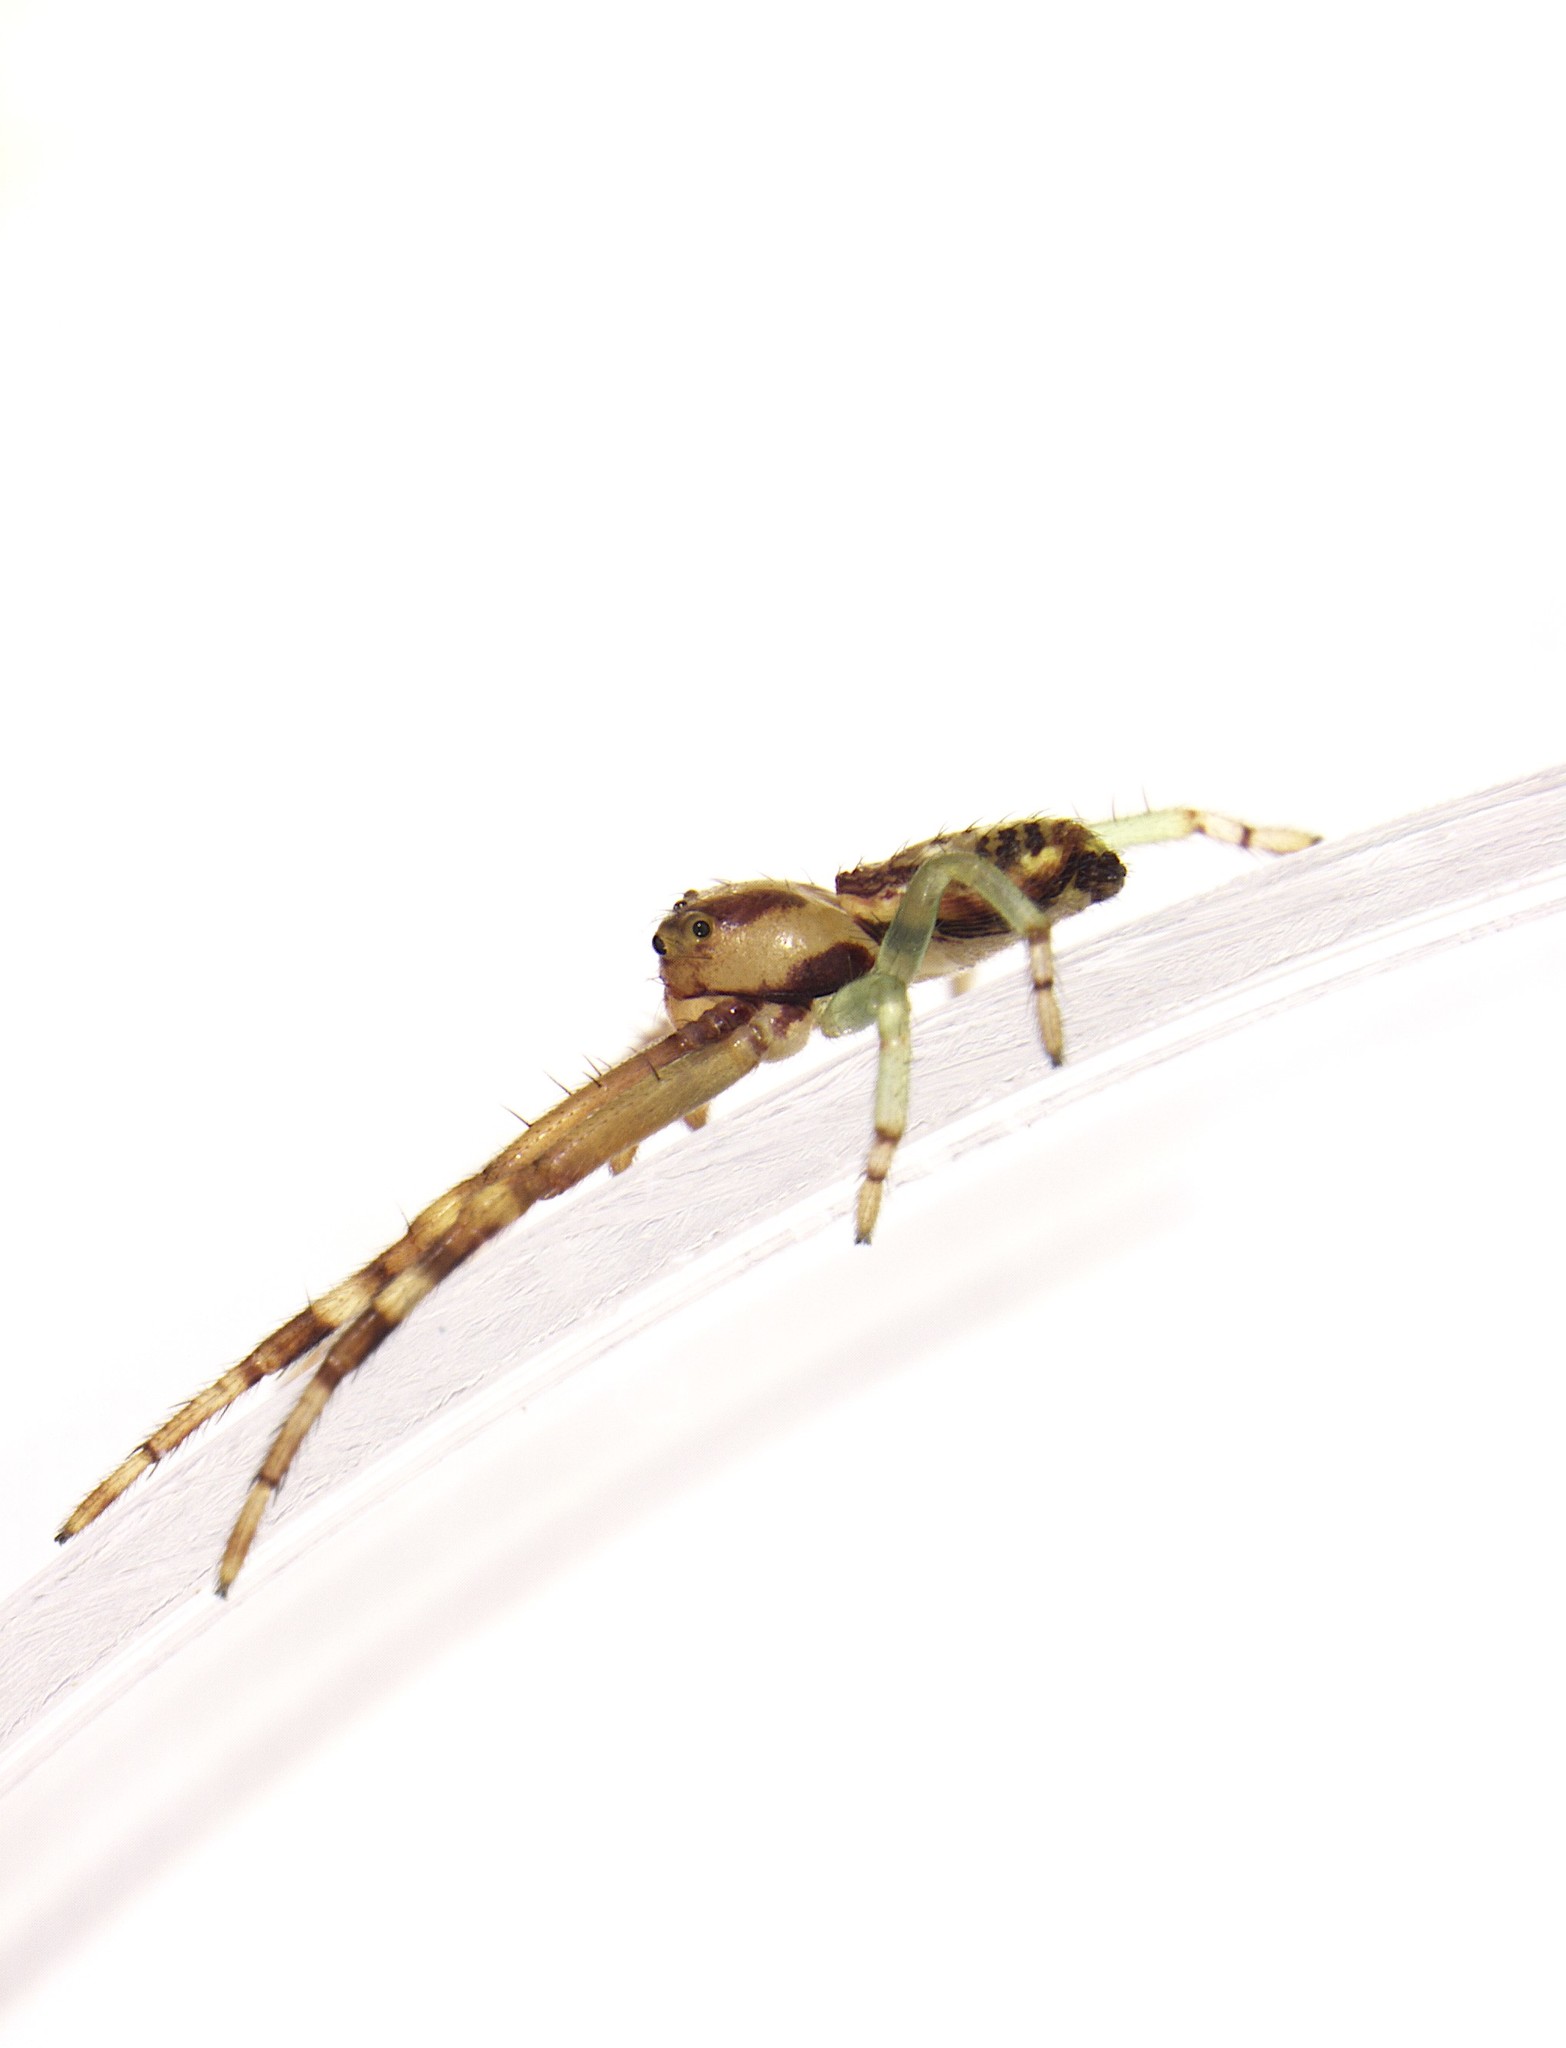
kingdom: Animalia
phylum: Arthropoda
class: Arachnida
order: Araneae
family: Thomisidae
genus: Diaea
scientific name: Diaea ambara
